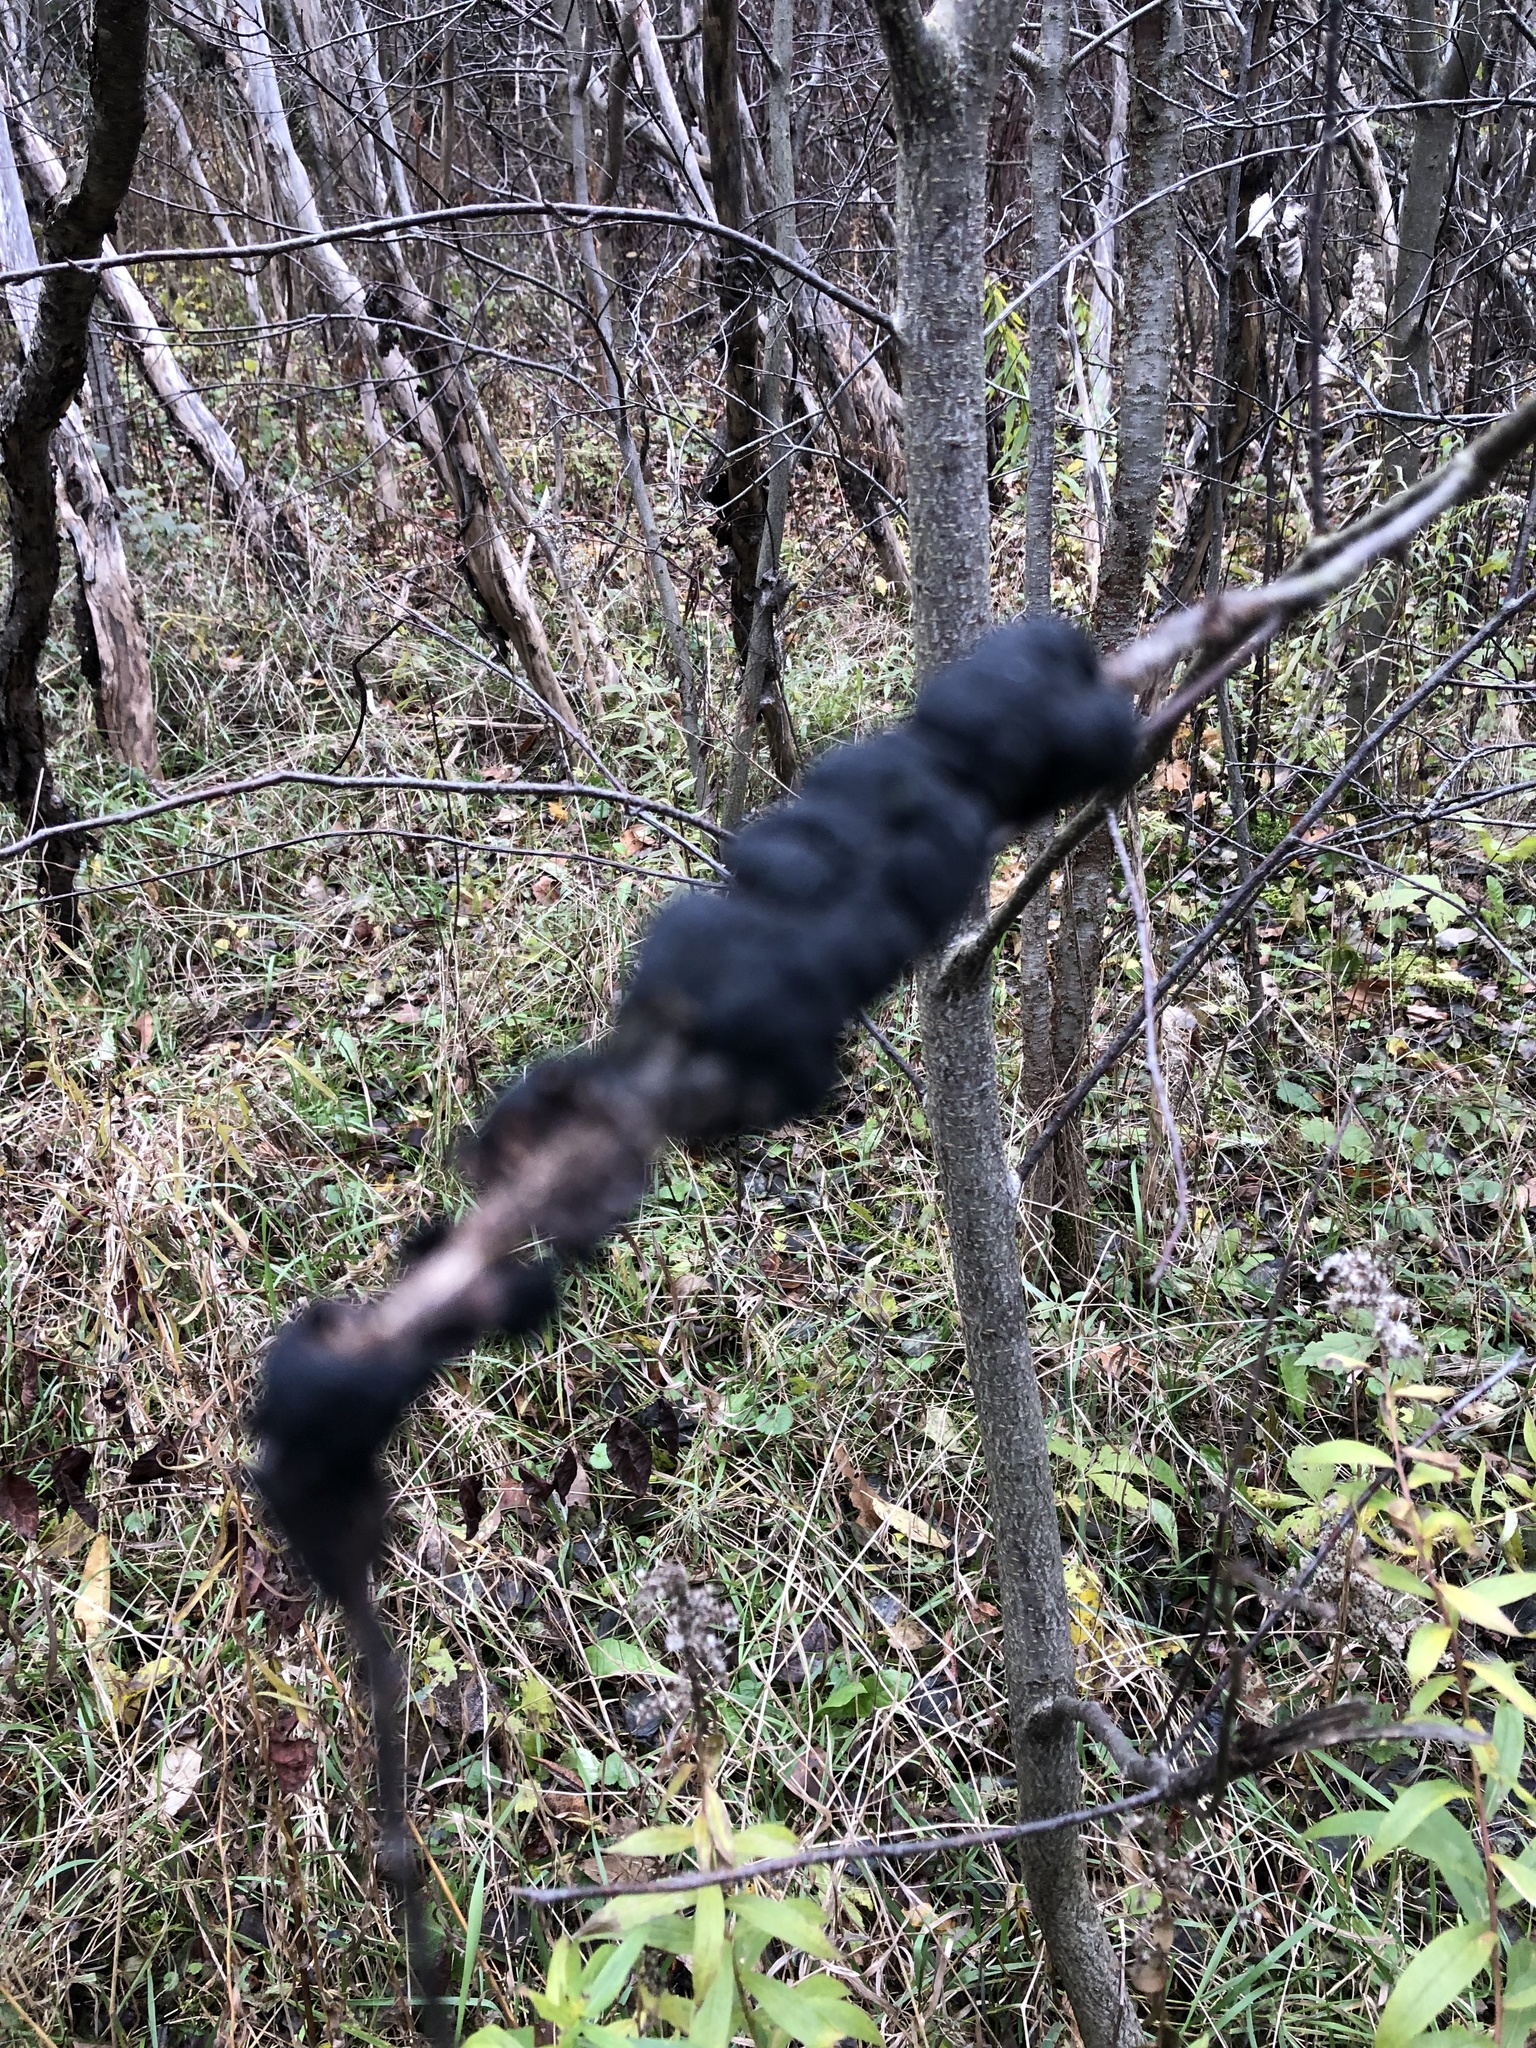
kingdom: Fungi
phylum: Ascomycota
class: Dothideomycetes
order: Venturiales
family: Venturiaceae
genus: Apiosporina
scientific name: Apiosporina morbosa
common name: Black knot
